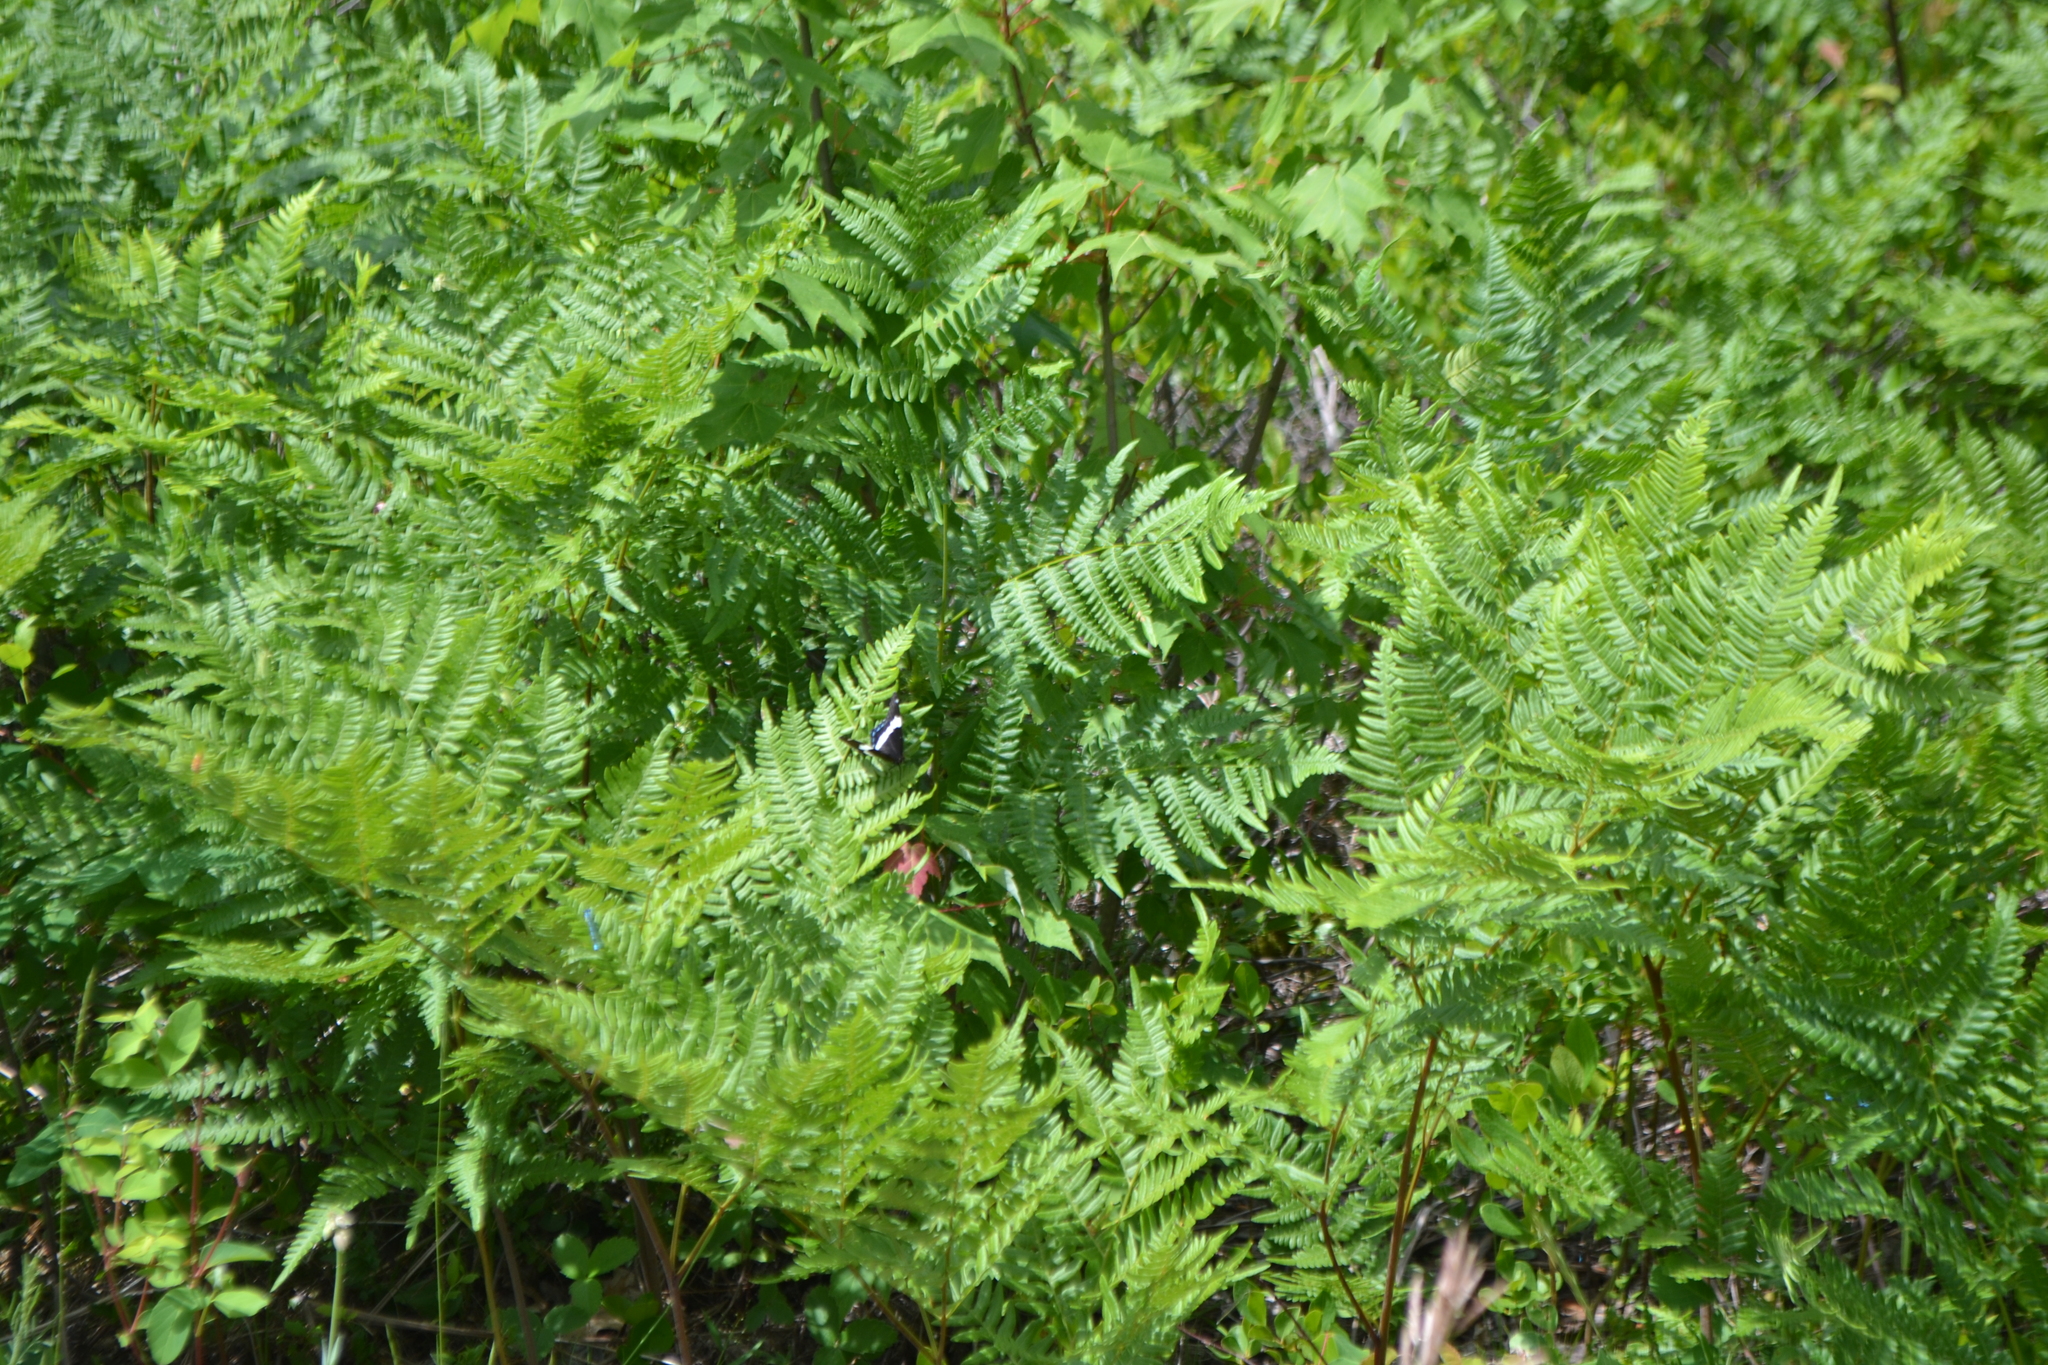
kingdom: Animalia
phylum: Arthropoda
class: Insecta
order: Lepidoptera
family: Nymphalidae
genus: Limenitis
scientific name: Limenitis arthemis
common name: Red-spotted admiral
